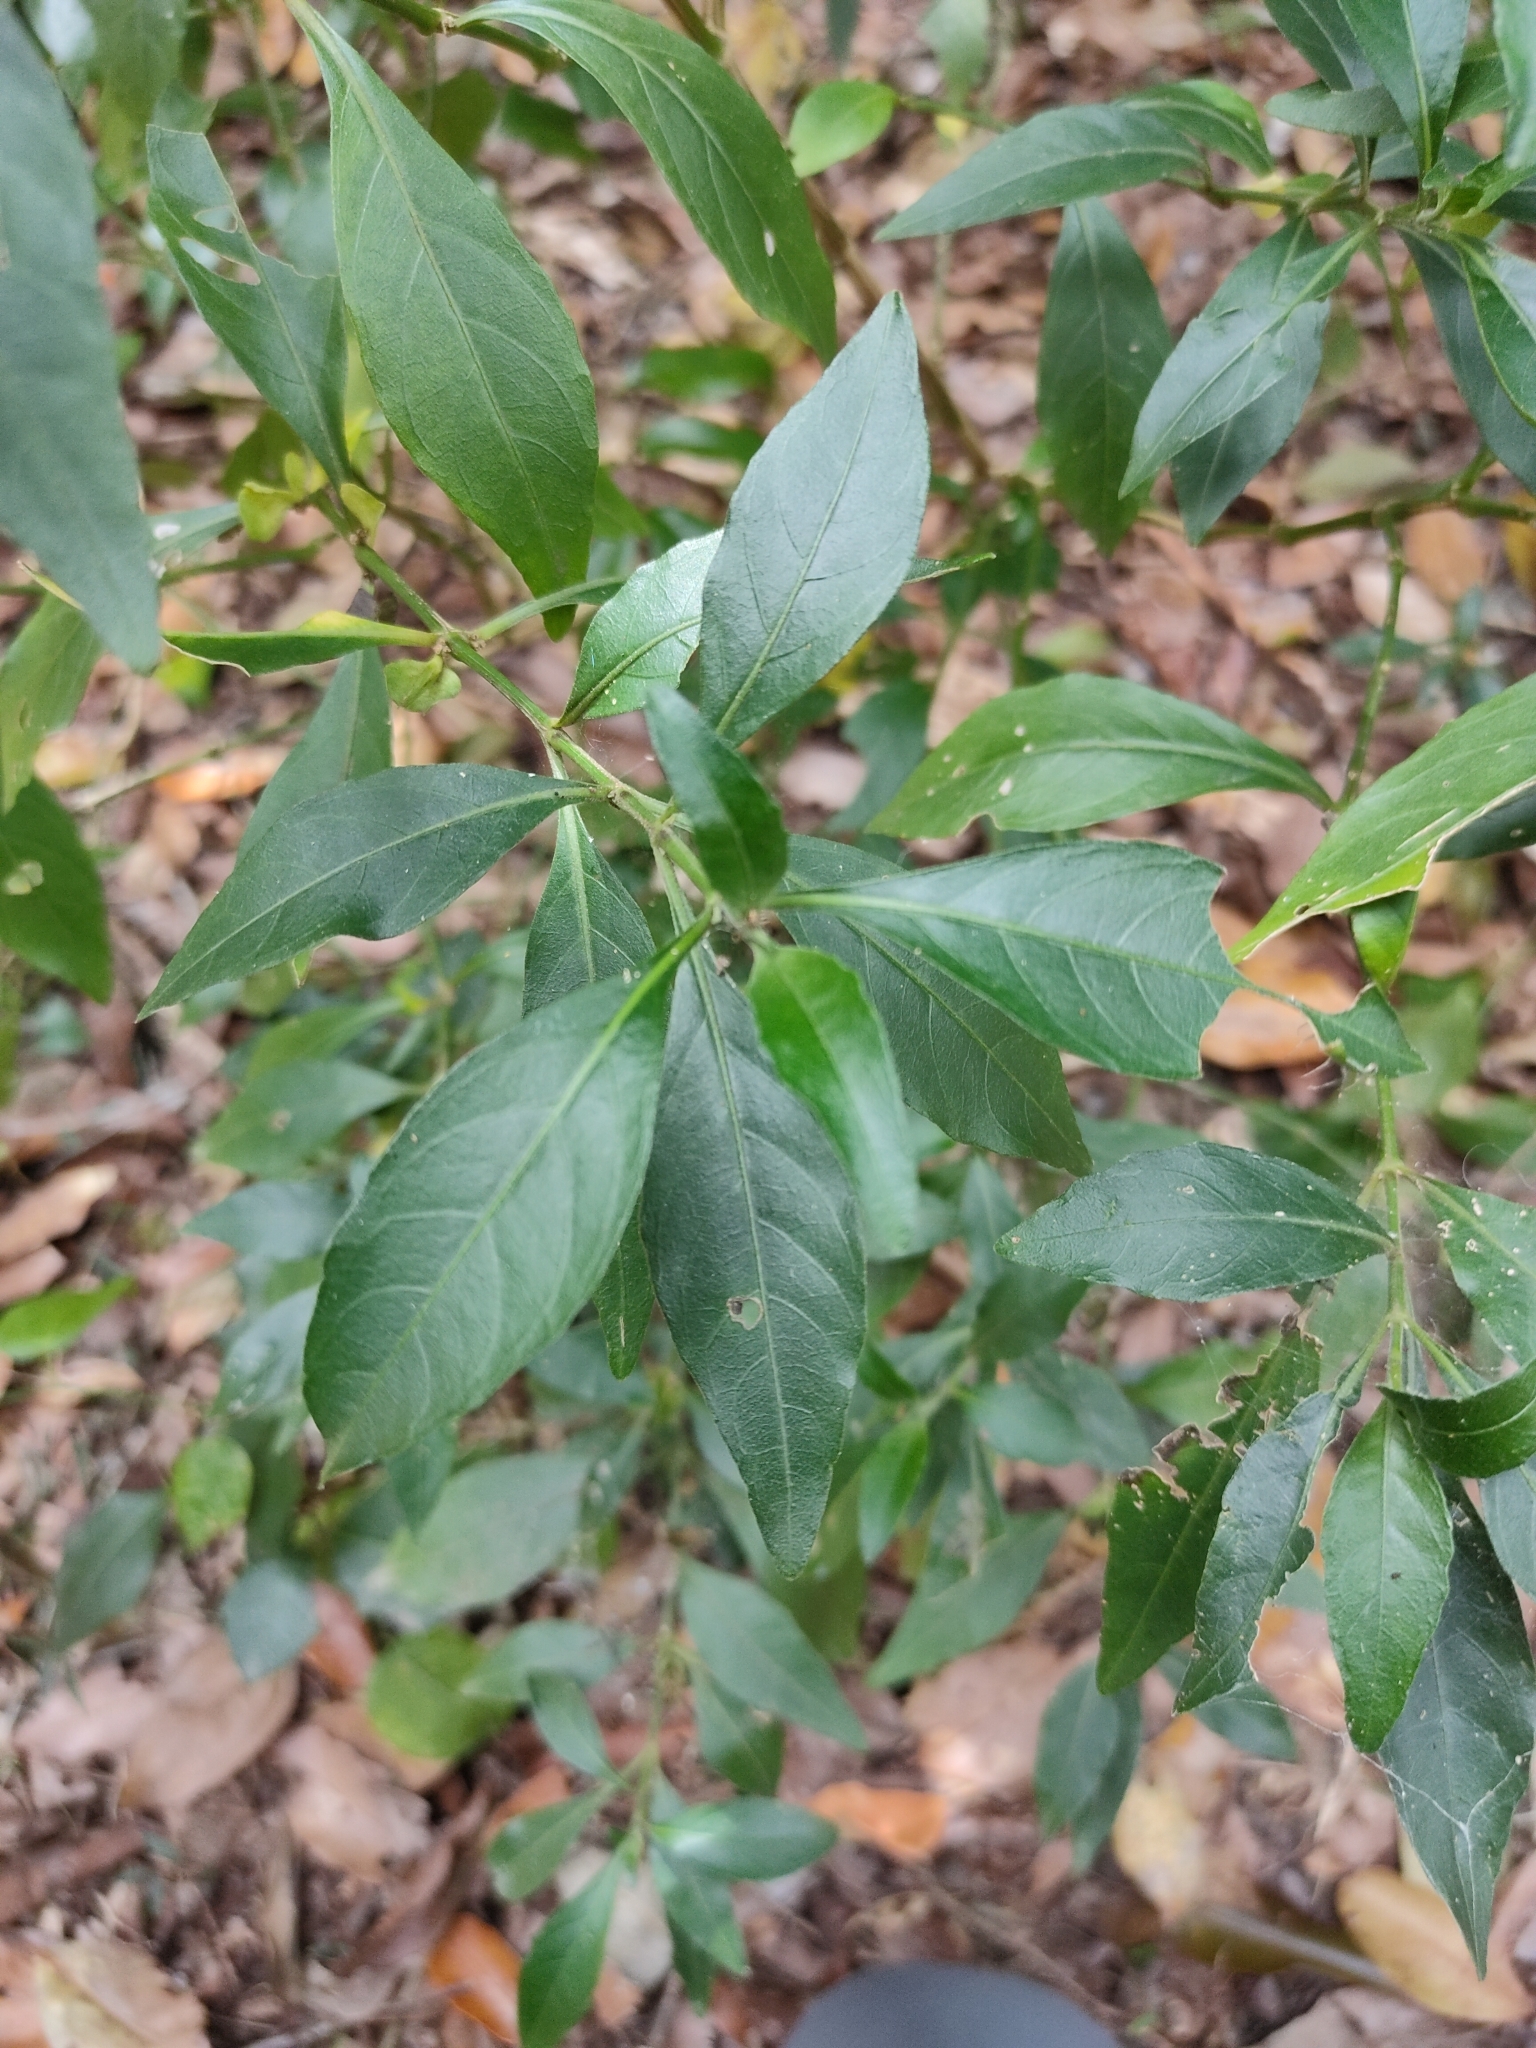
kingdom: Plantae
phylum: Tracheophyta
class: Magnoliopsida
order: Lamiales
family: Acanthaceae
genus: Justicia
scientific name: Justicia hygrophiloides
